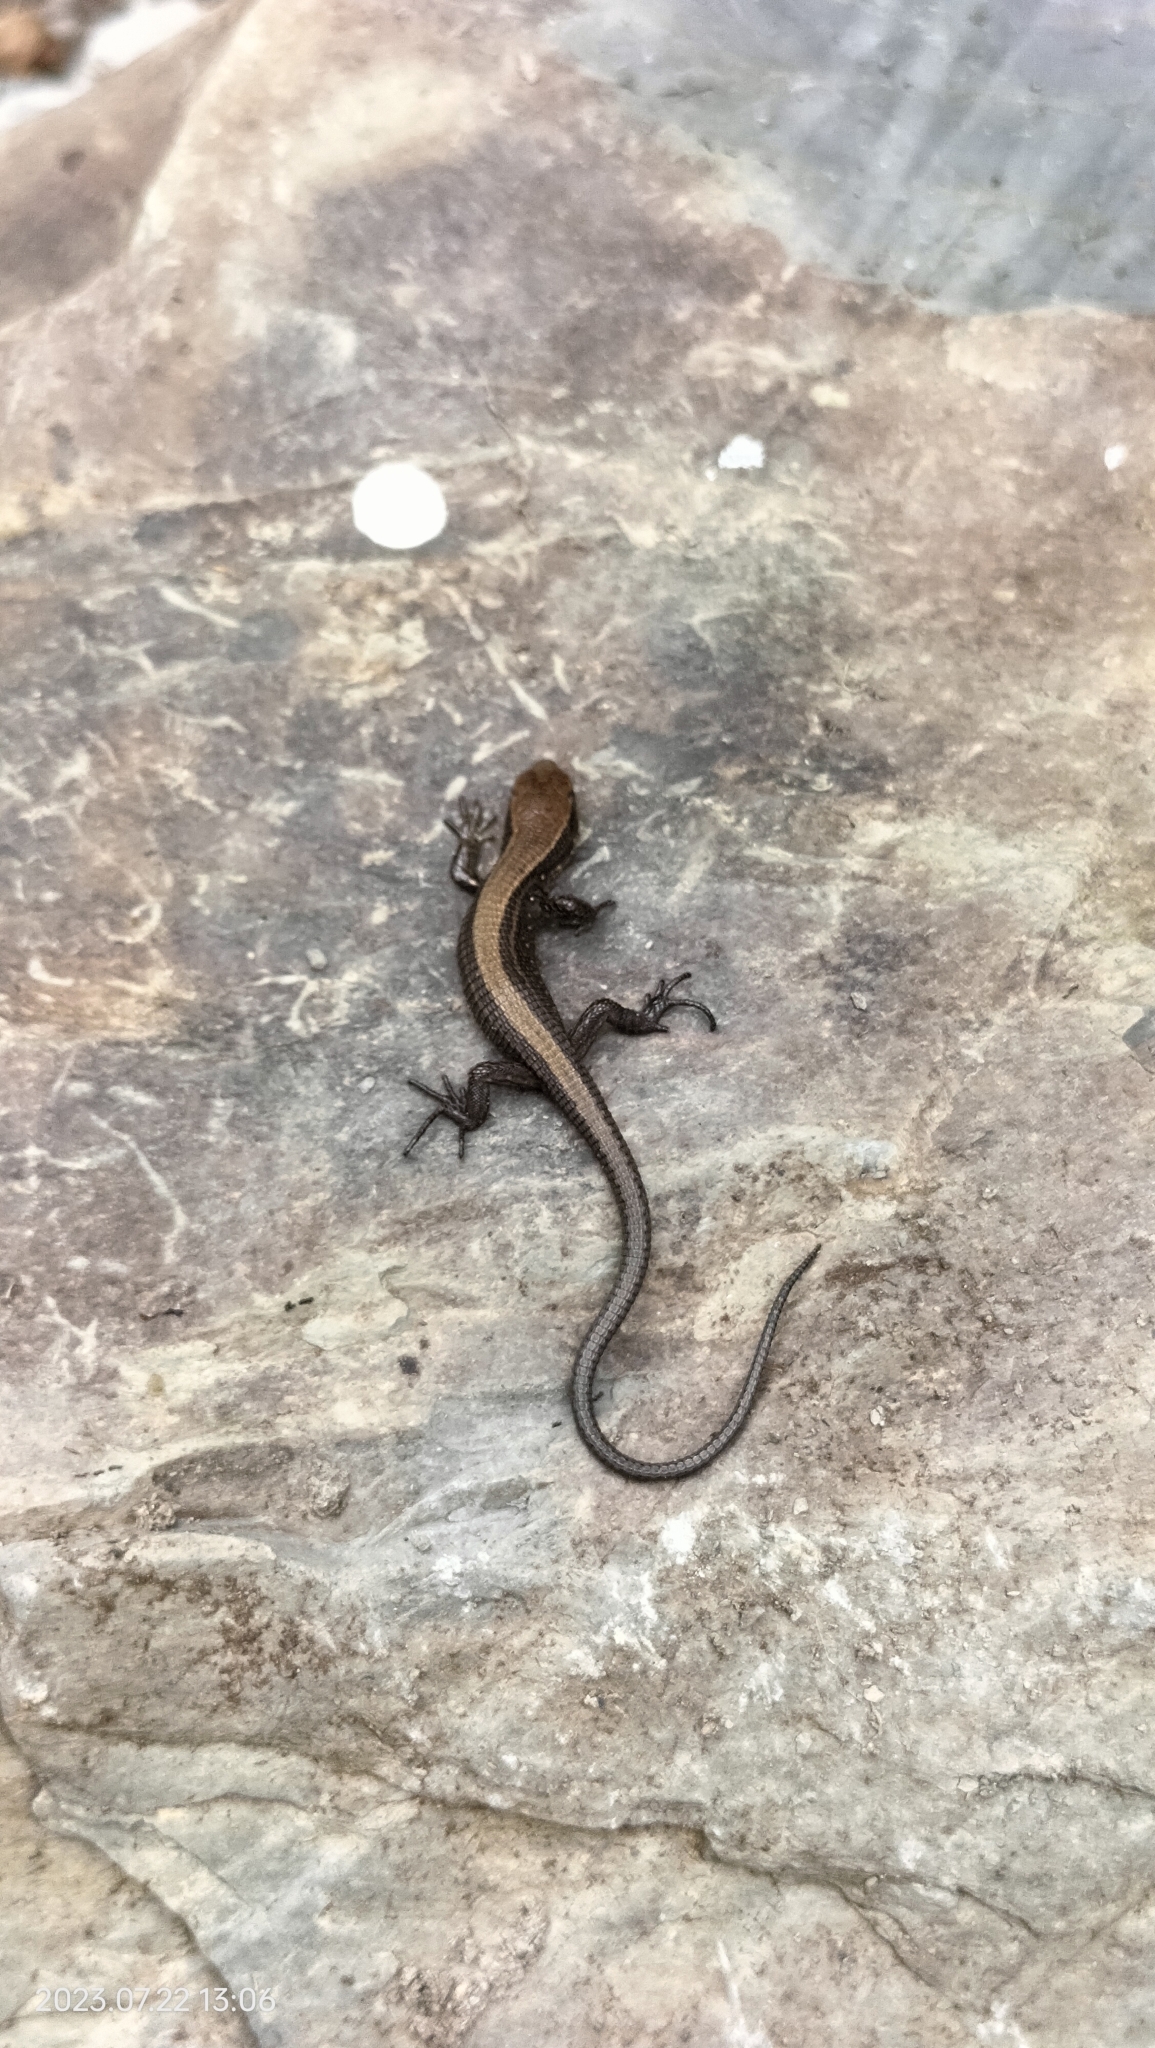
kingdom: Animalia
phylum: Chordata
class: Squamata
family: Gymnophthalmidae
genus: Proctoporus
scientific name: Proctoporus chasqui
